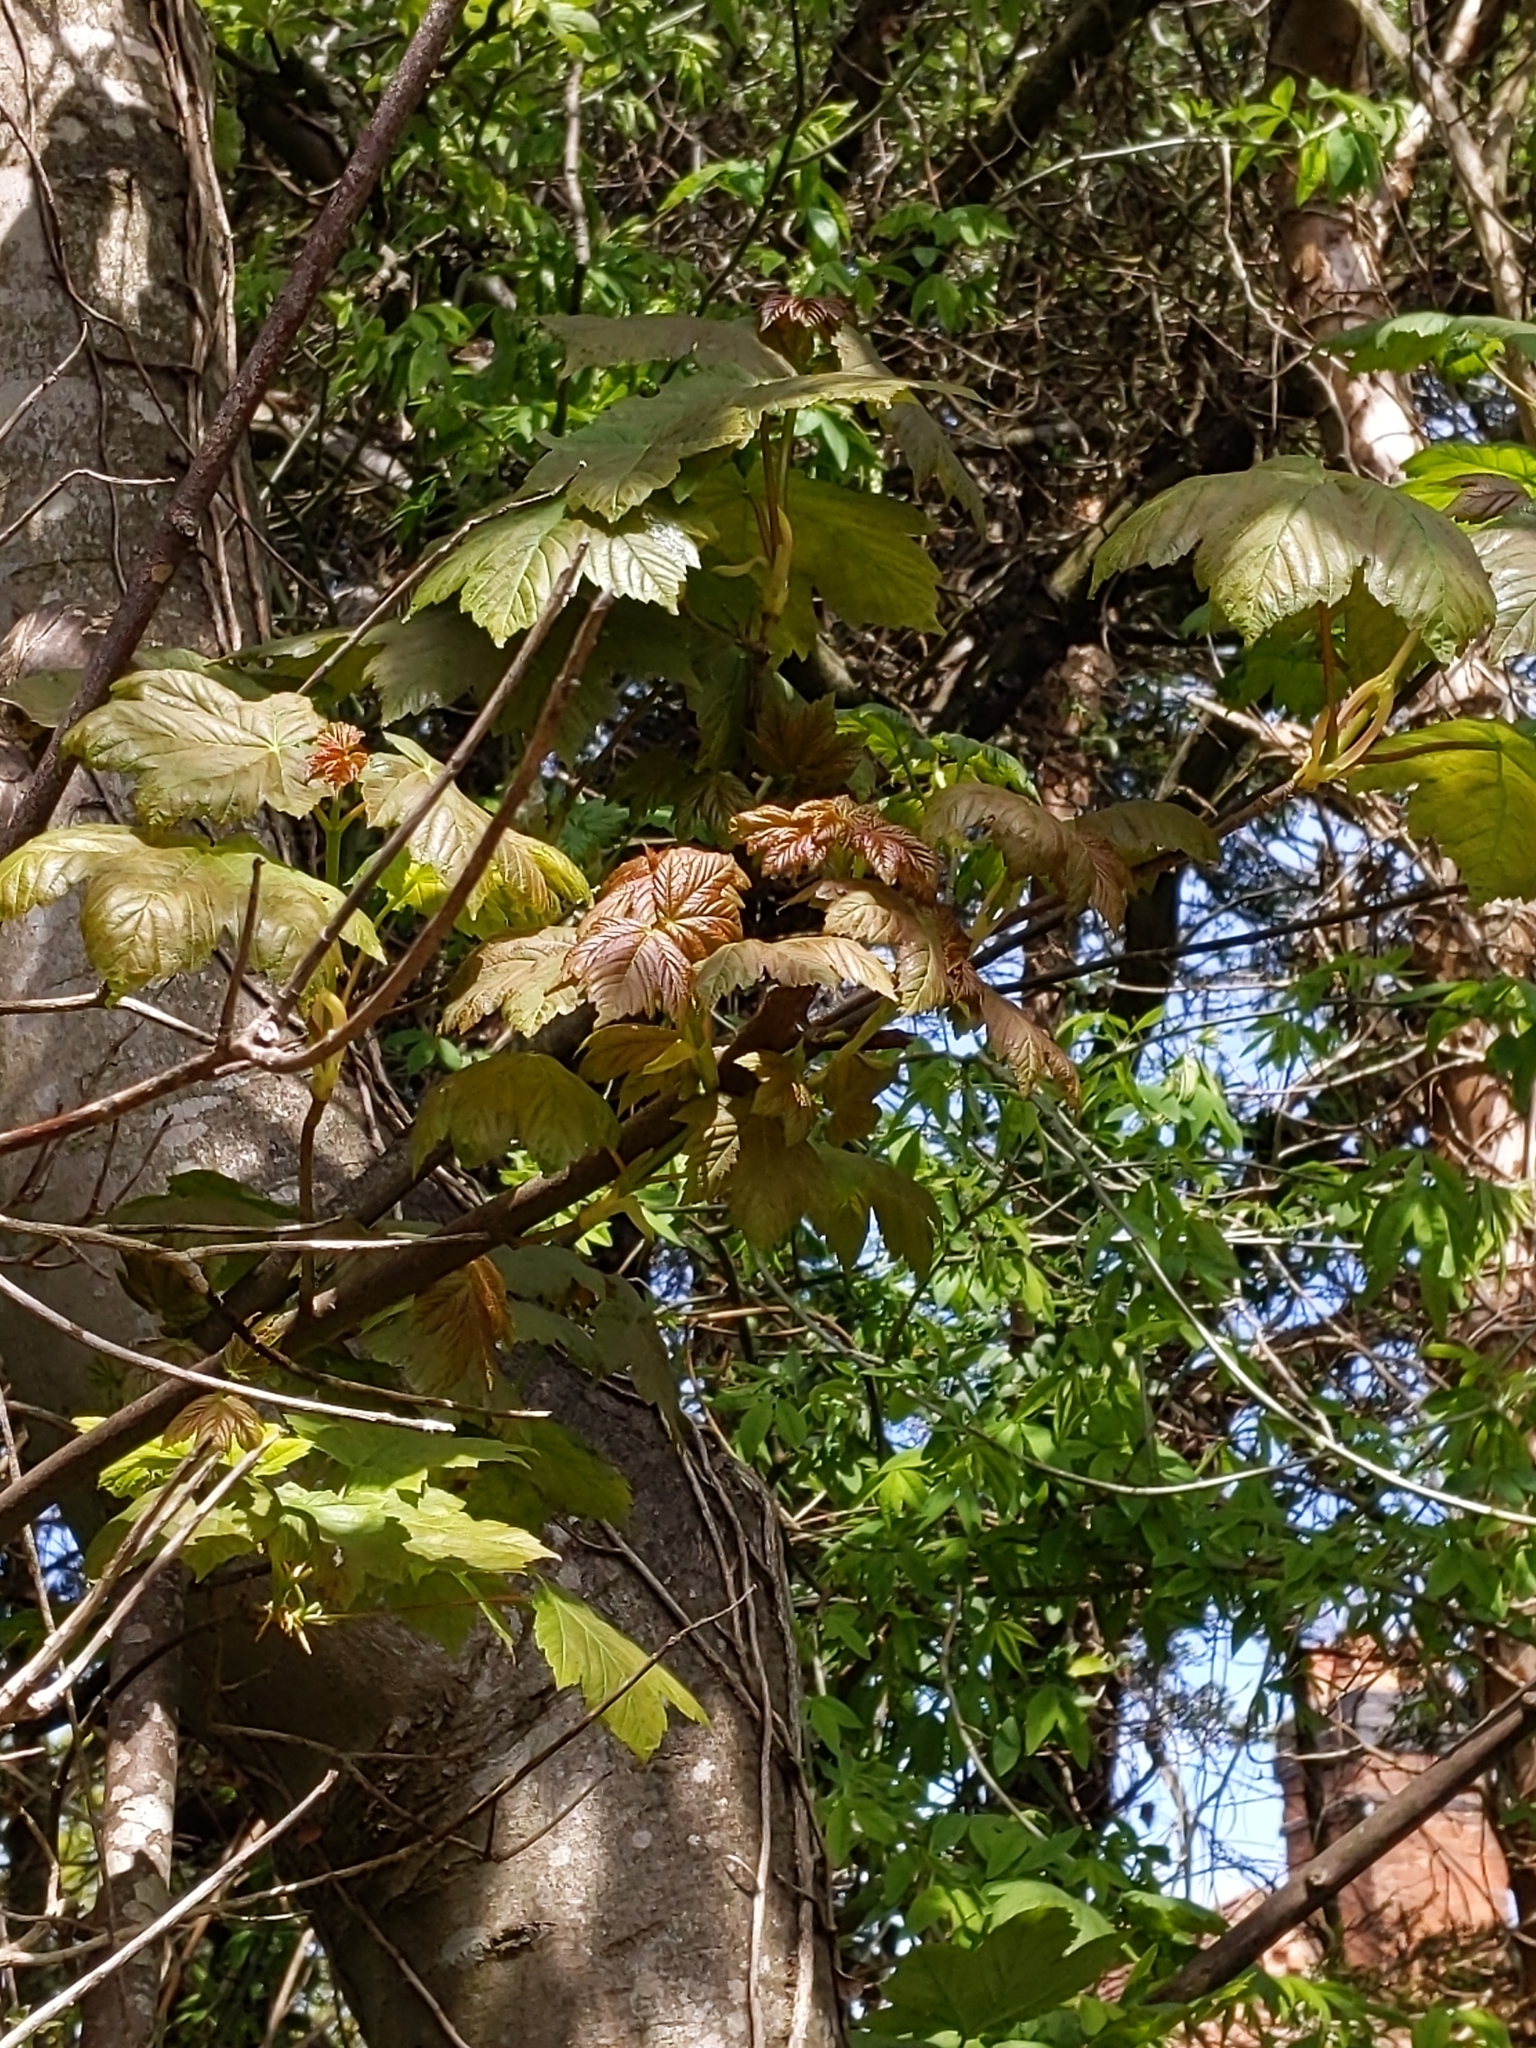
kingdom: Plantae
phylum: Tracheophyta
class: Magnoliopsida
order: Sapindales
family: Sapindaceae
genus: Acer
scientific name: Acer pseudoplatanus
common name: Sycamore
